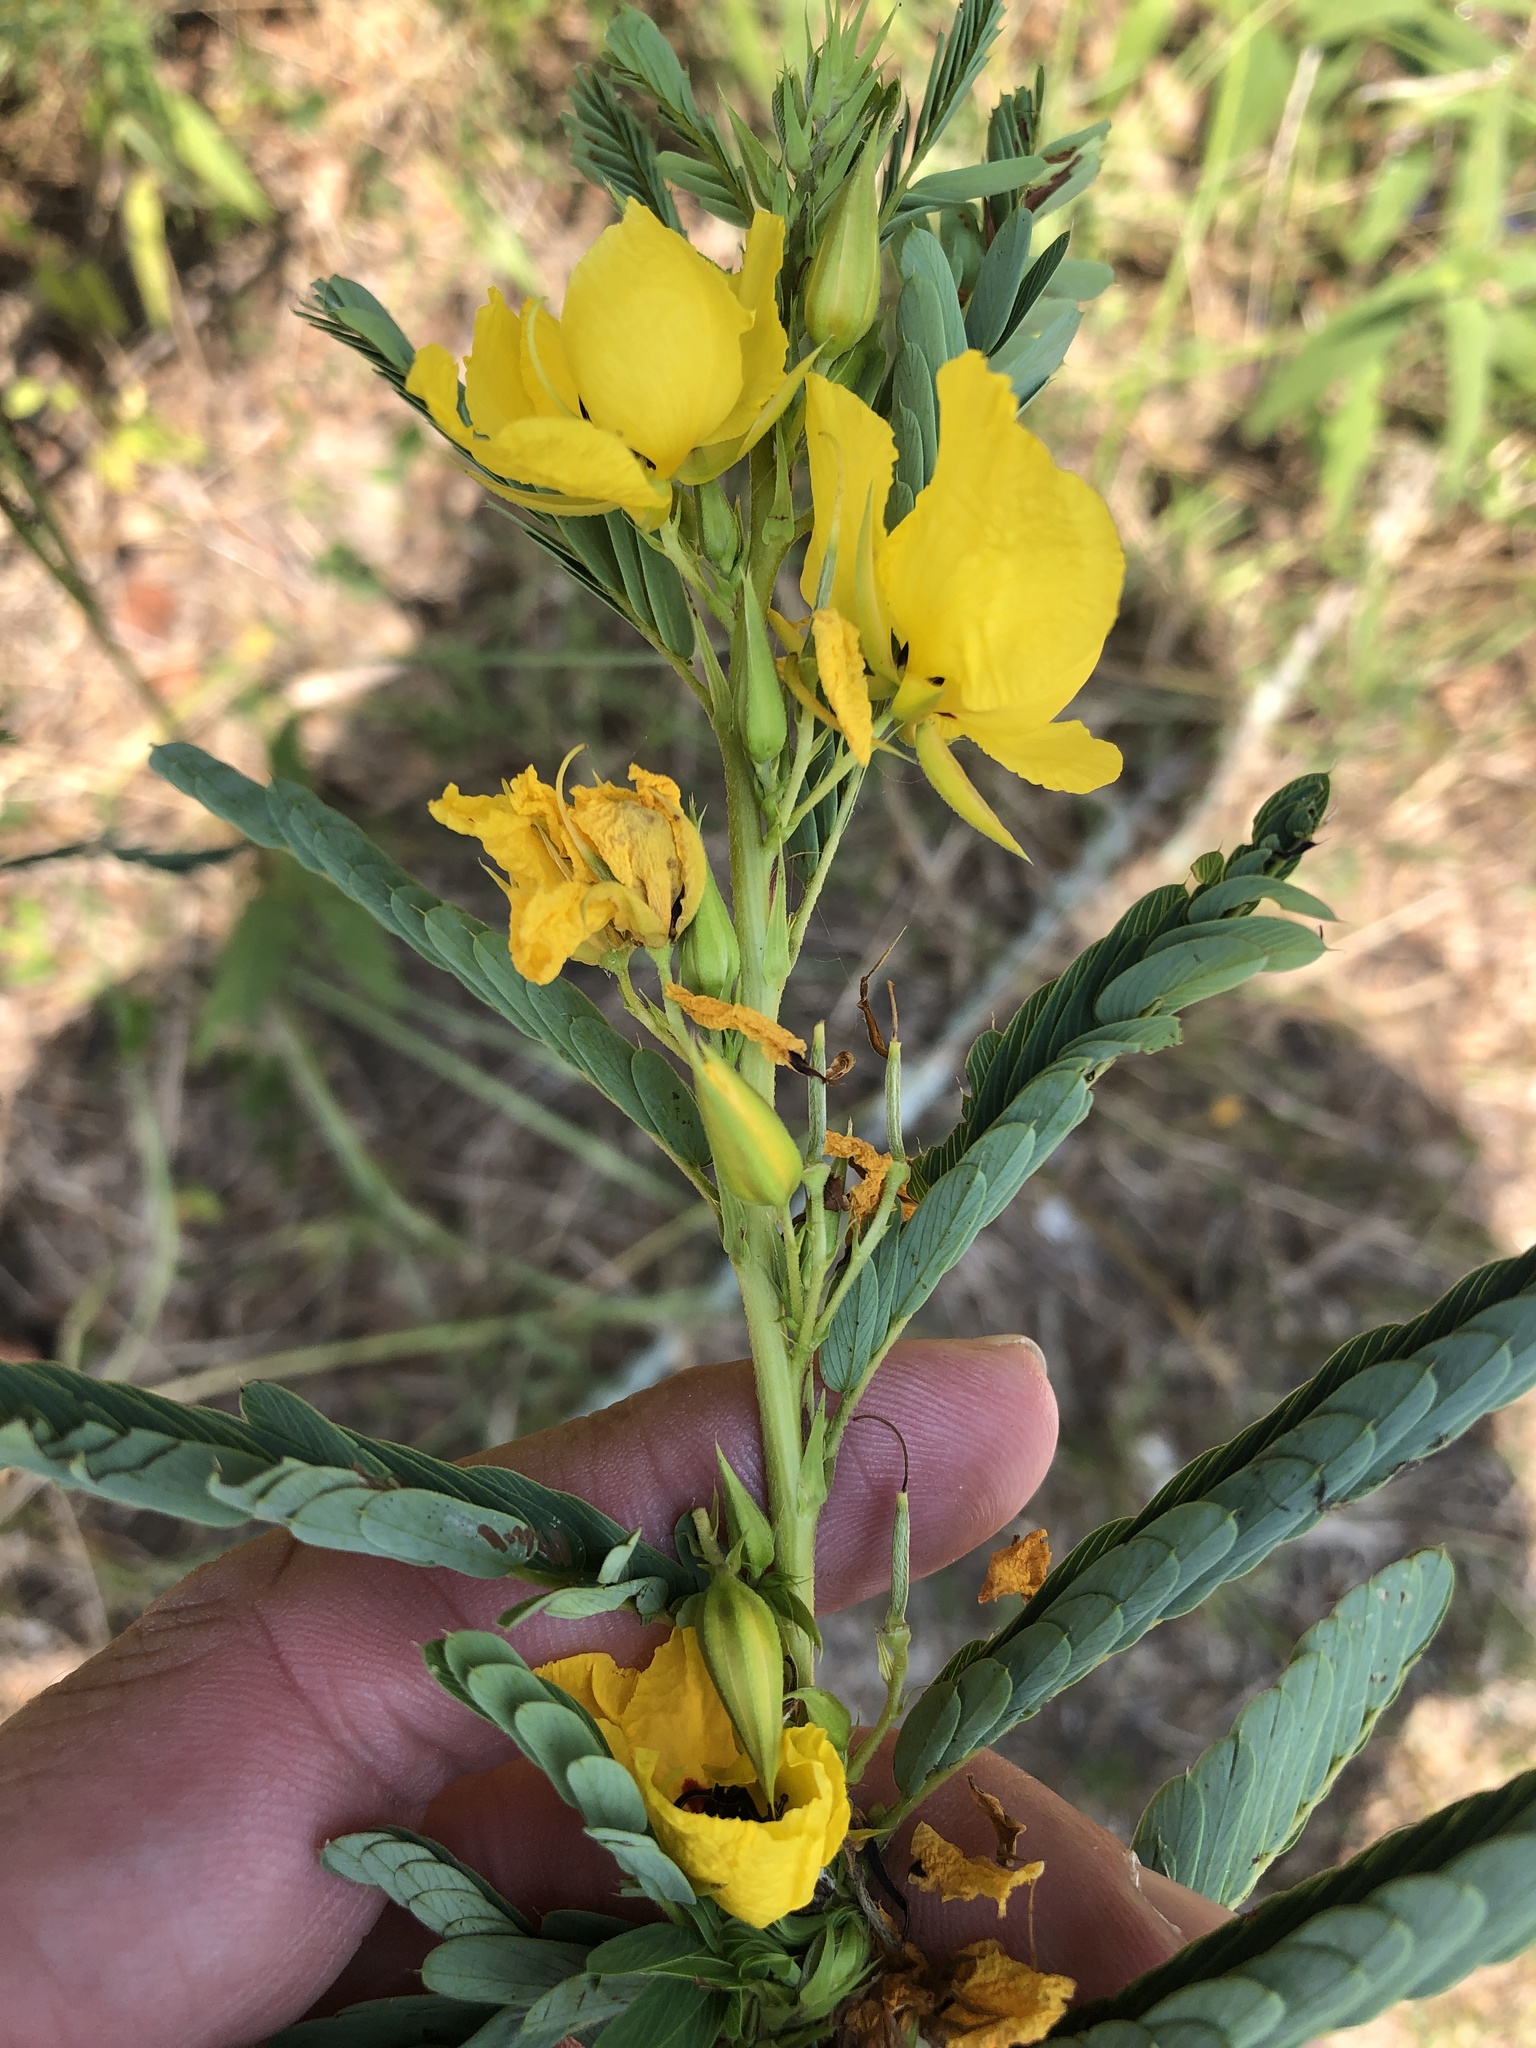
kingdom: Plantae
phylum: Tracheophyta
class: Magnoliopsida
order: Fabales
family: Fabaceae
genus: Chamaecrista
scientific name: Chamaecrista fasciculata
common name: Golden cassia
